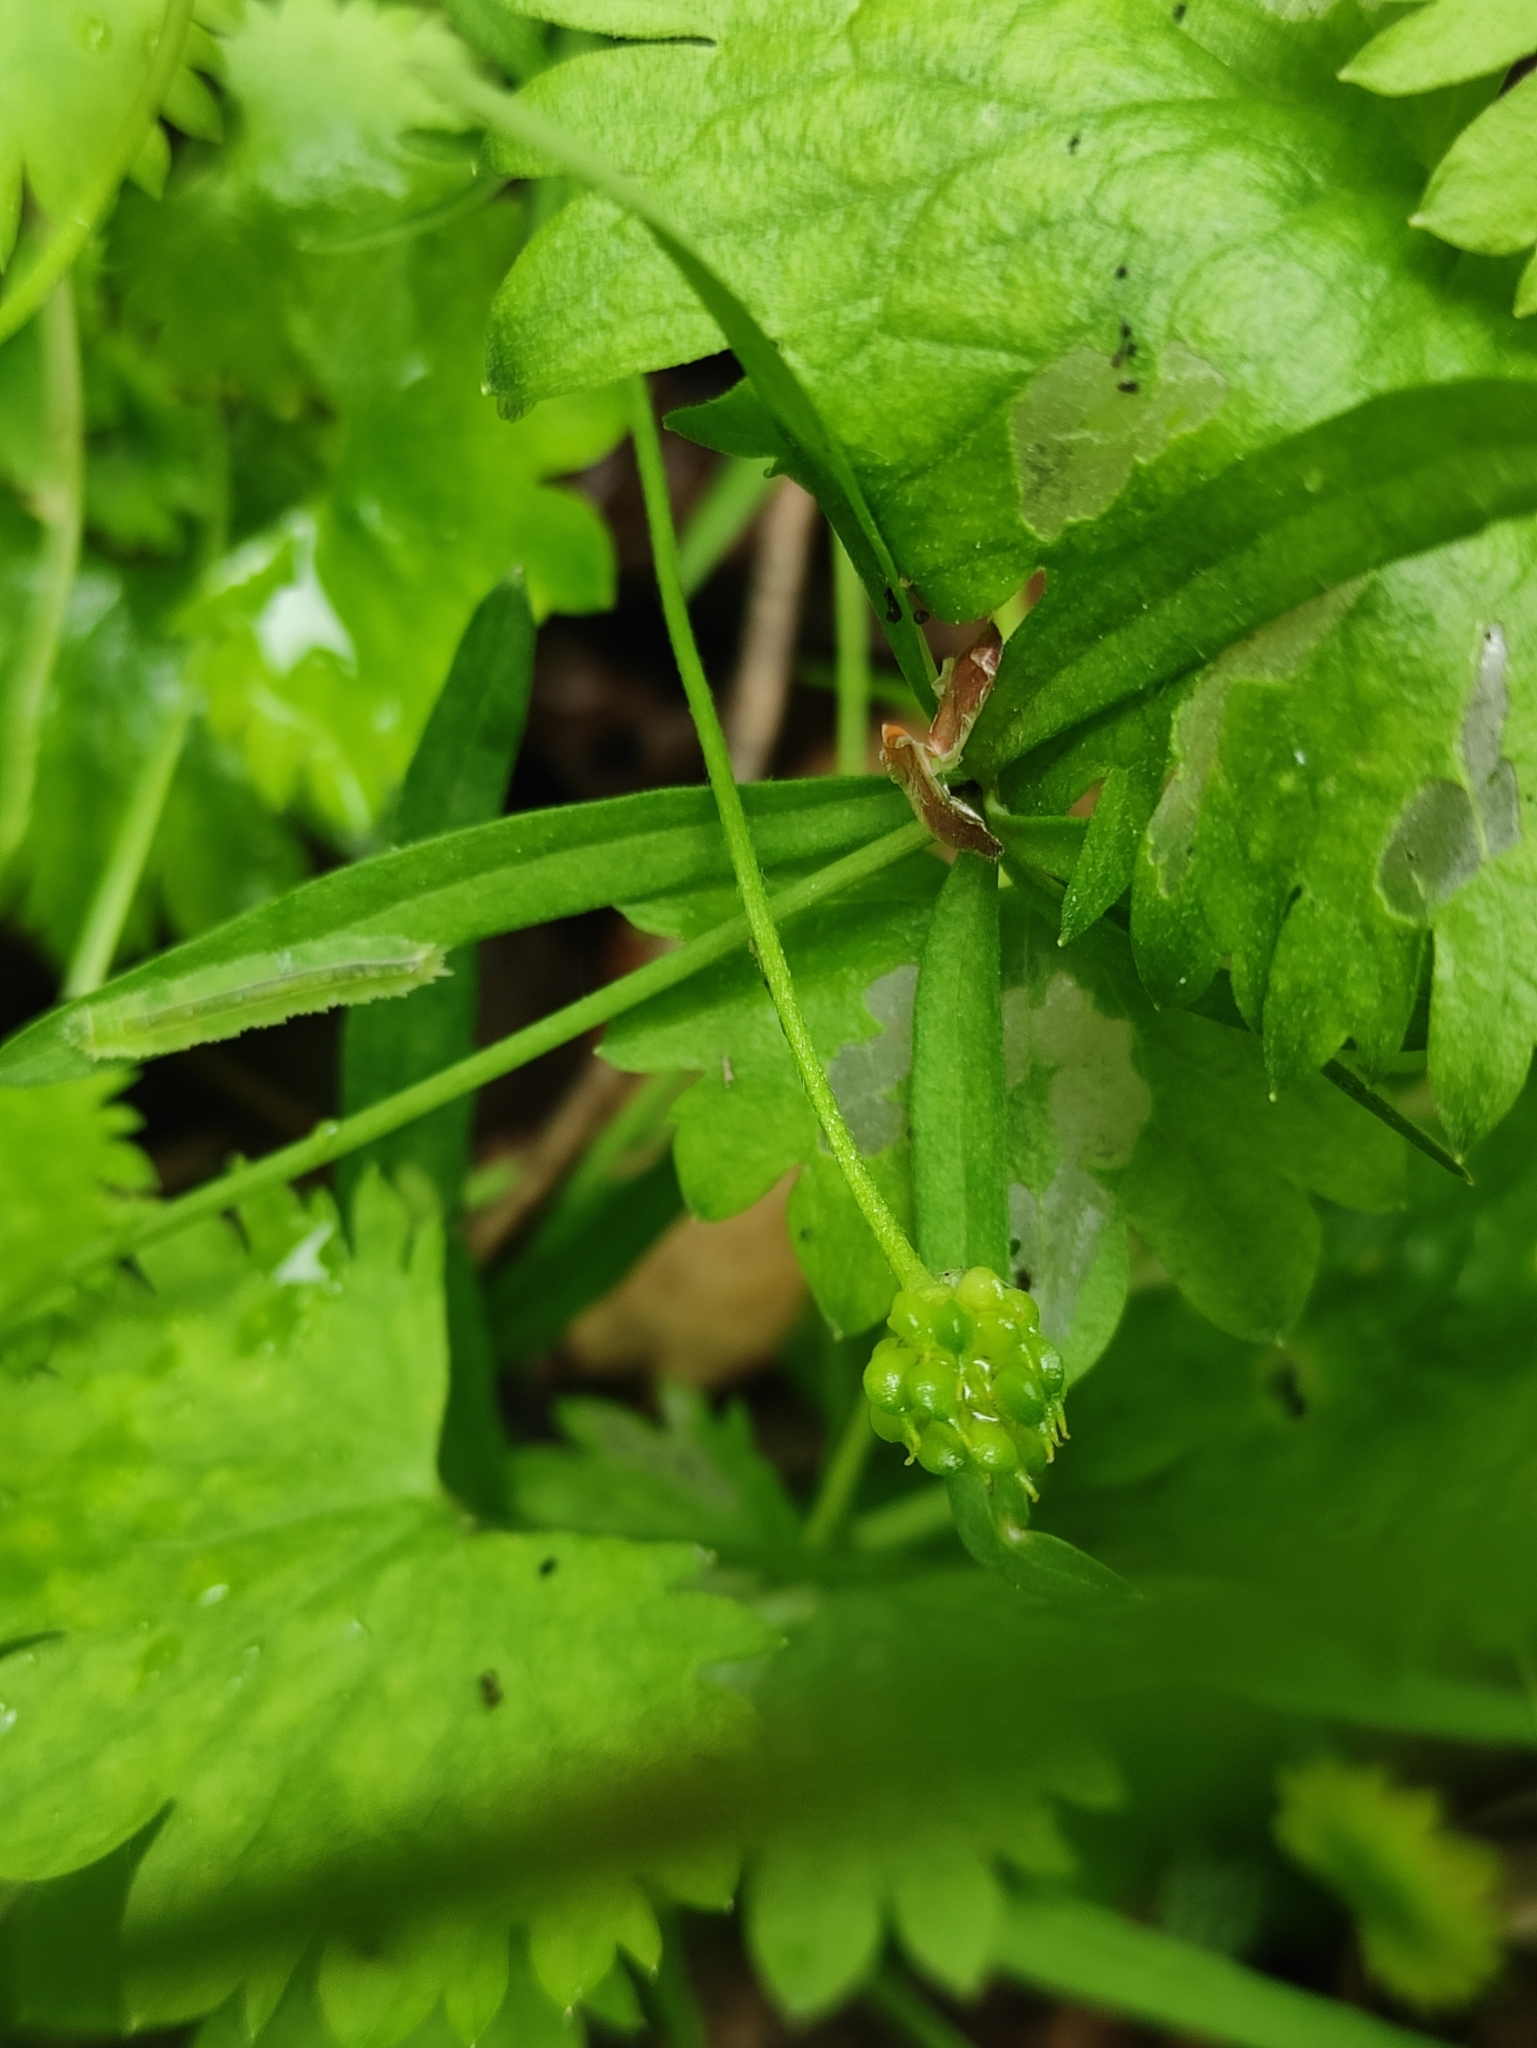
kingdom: Plantae
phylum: Tracheophyta
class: Magnoliopsida
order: Ranunculales
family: Ranunculaceae
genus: Ranunculus
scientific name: Ranunculus monophyllus
